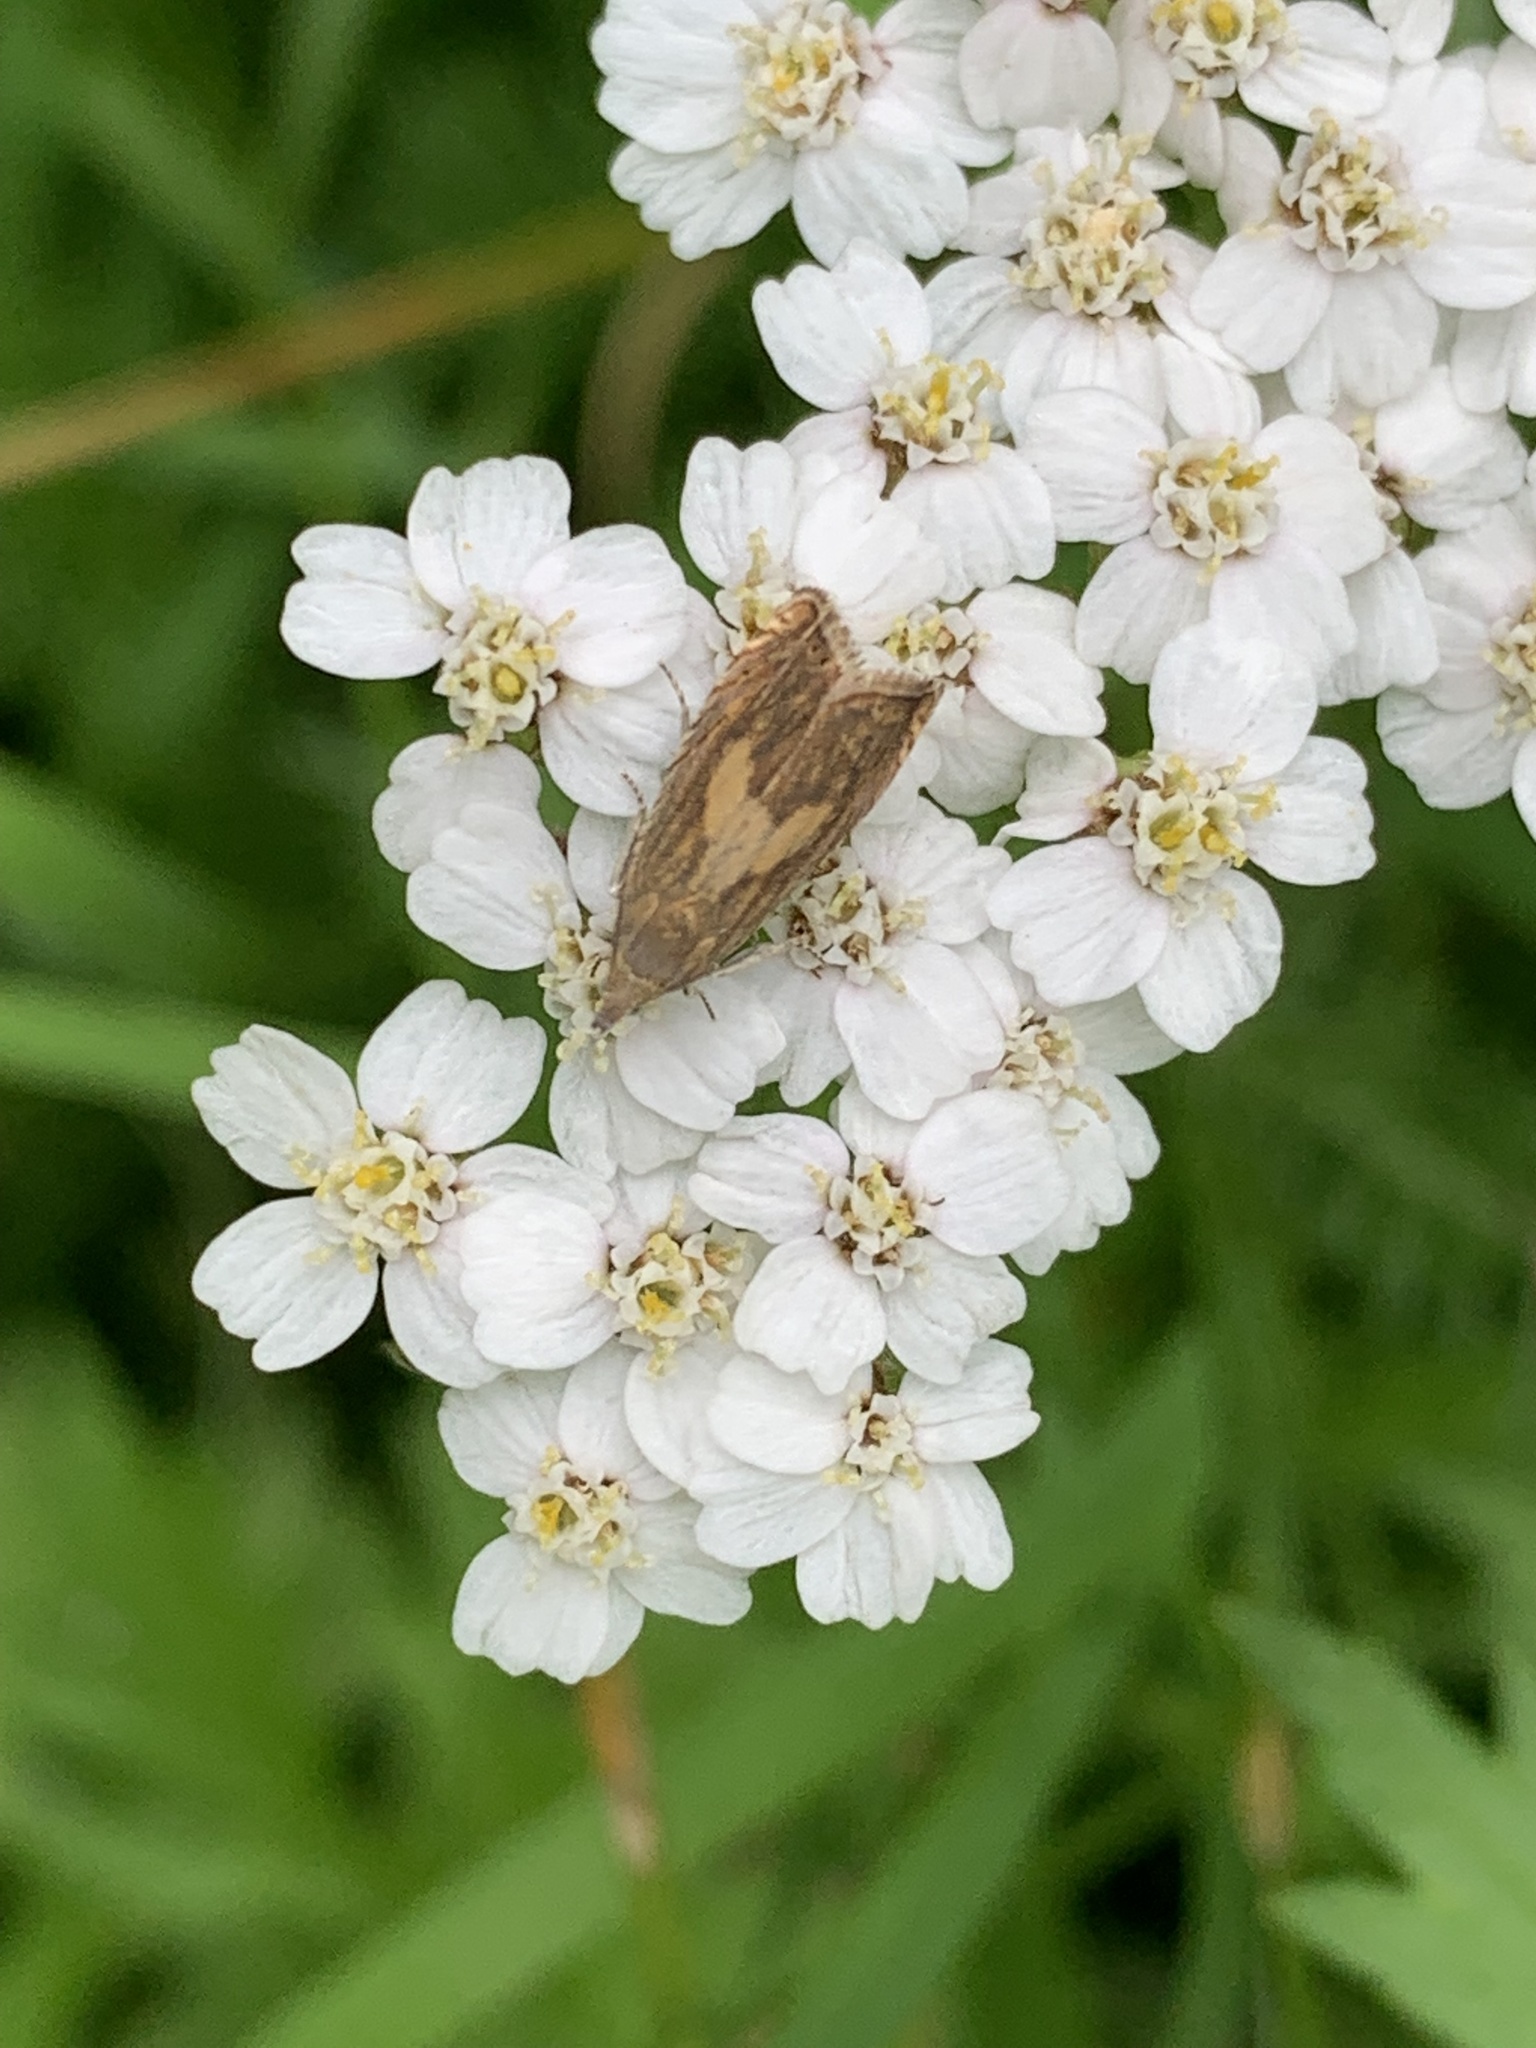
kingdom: Animalia
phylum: Arthropoda
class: Insecta
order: Lepidoptera
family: Tortricidae
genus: Dichrorampha
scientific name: Dichrorampha petiverella
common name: Common drill
